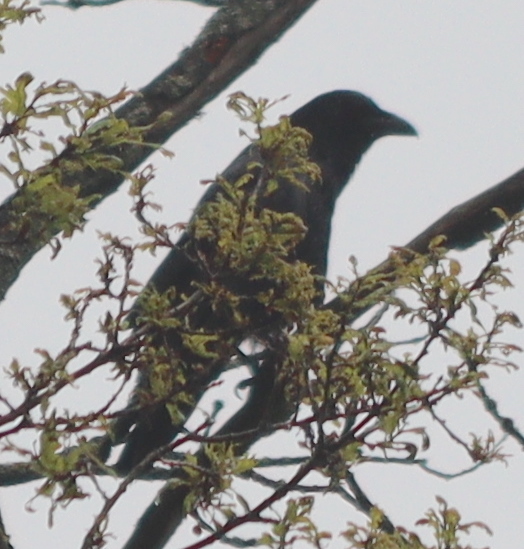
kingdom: Animalia
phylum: Chordata
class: Aves
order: Passeriformes
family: Corvidae
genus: Corvus
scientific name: Corvus corone
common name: Carrion crow
